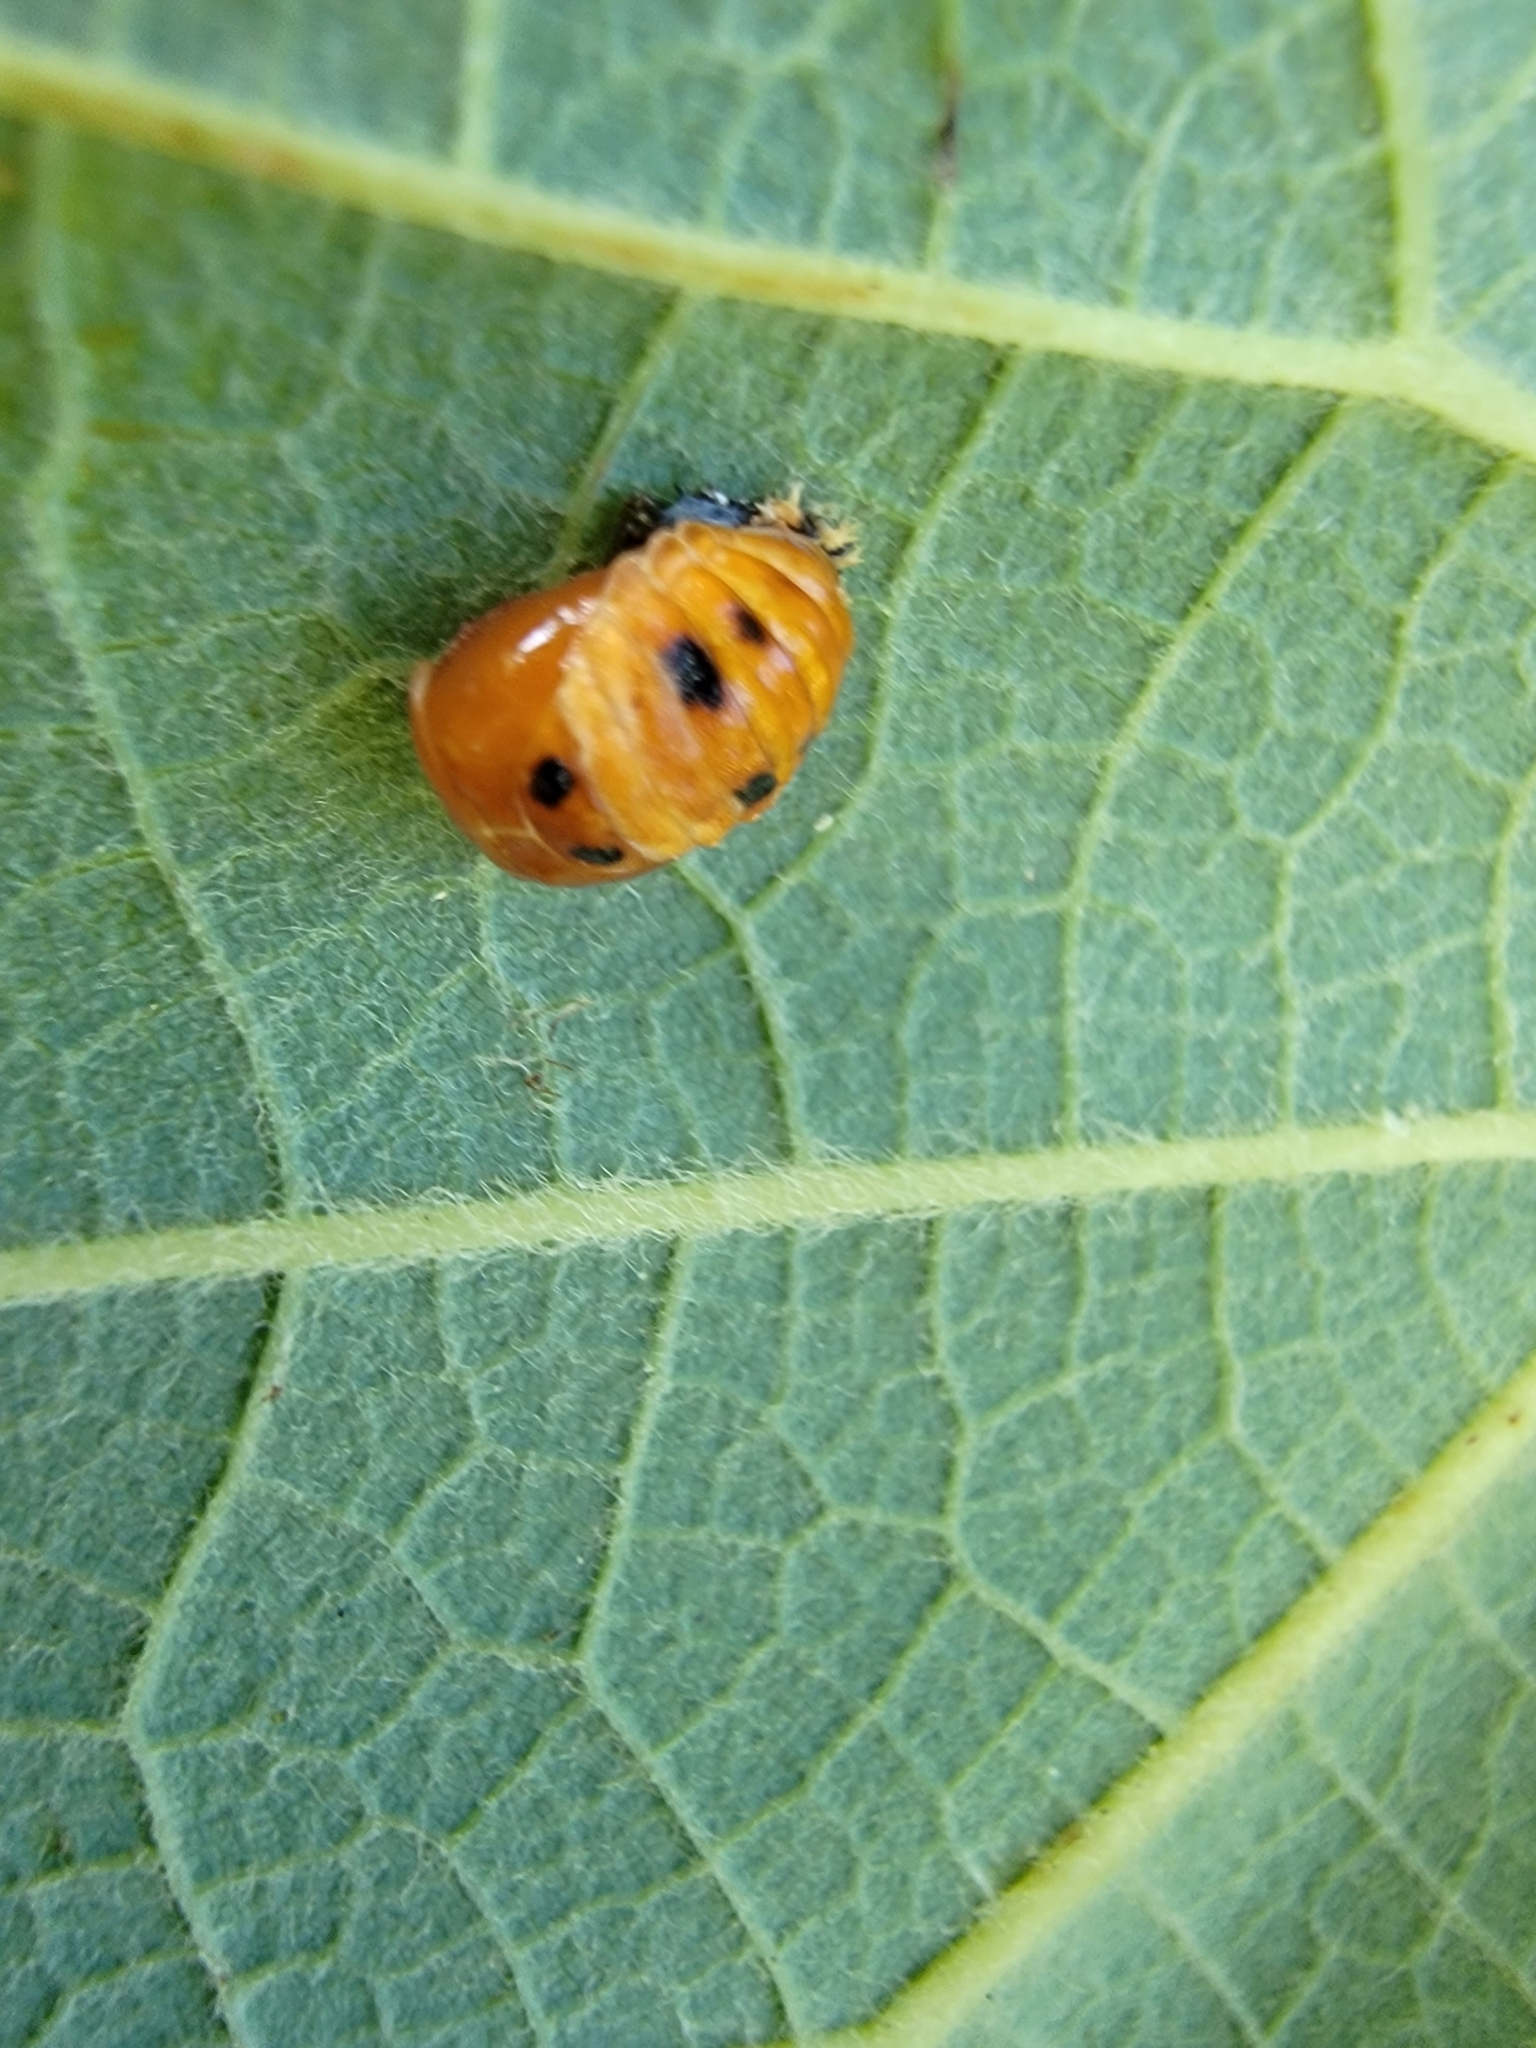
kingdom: Animalia
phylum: Arthropoda
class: Insecta
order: Coleoptera
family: Coccinellidae
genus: Harmonia
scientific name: Harmonia axyridis
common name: Harlequin ladybird
